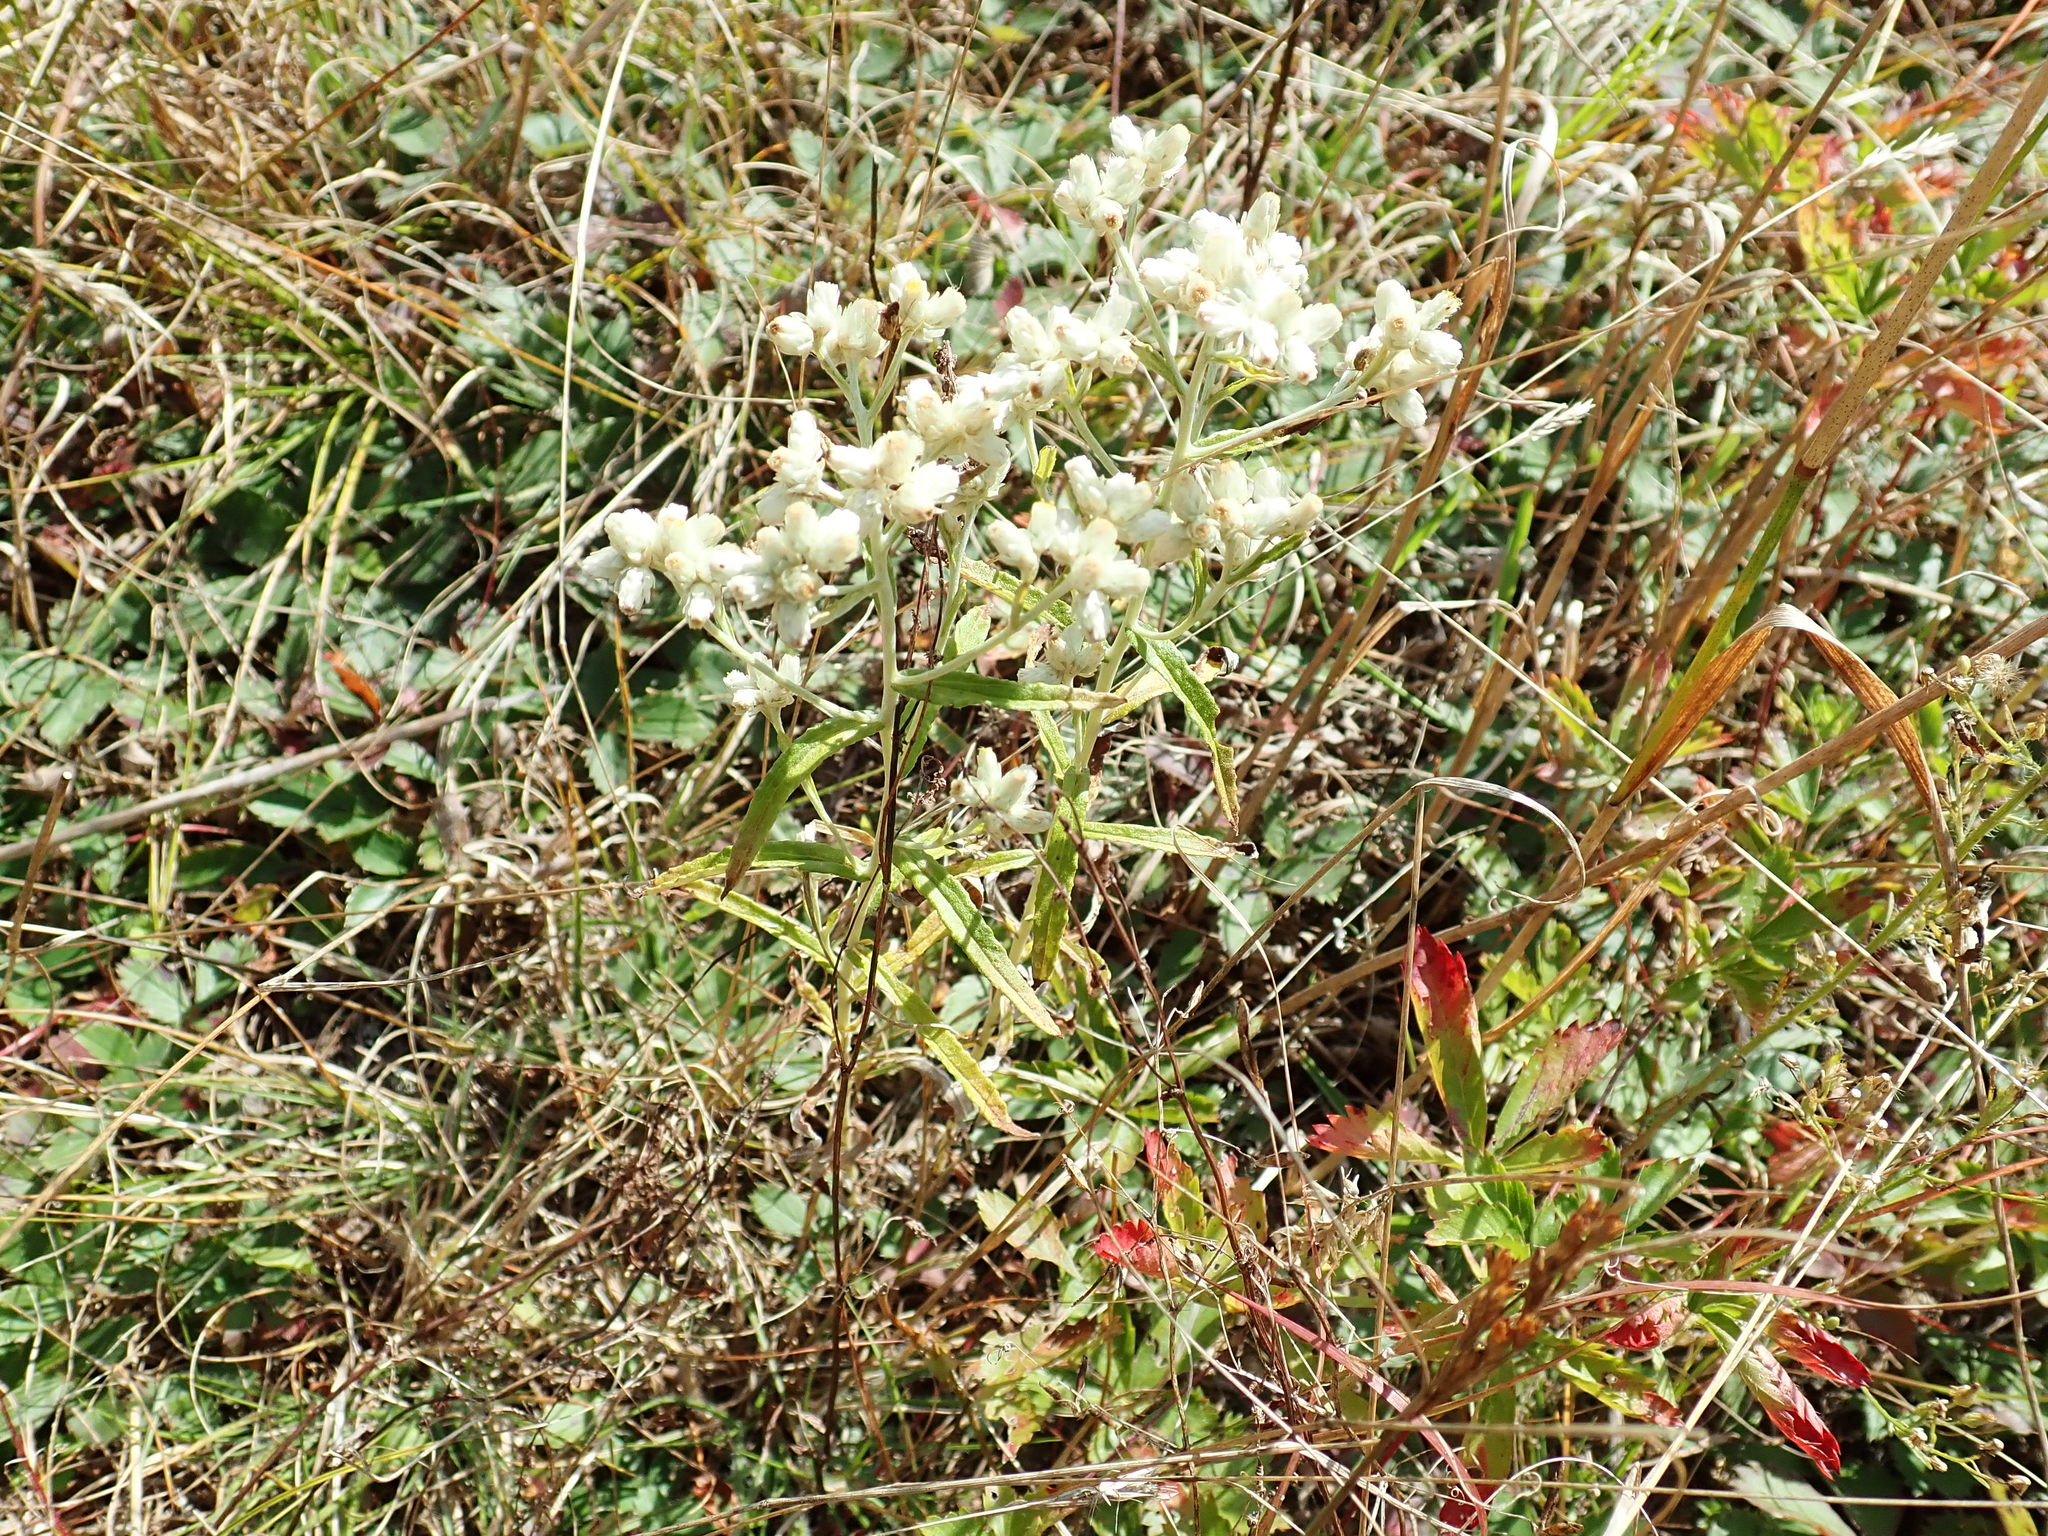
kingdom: Plantae
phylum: Tracheophyta
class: Magnoliopsida
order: Asterales
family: Asteraceae
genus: Pseudognaphalium
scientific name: Pseudognaphalium obtusifolium
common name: Eastern rabbit-tobacco
